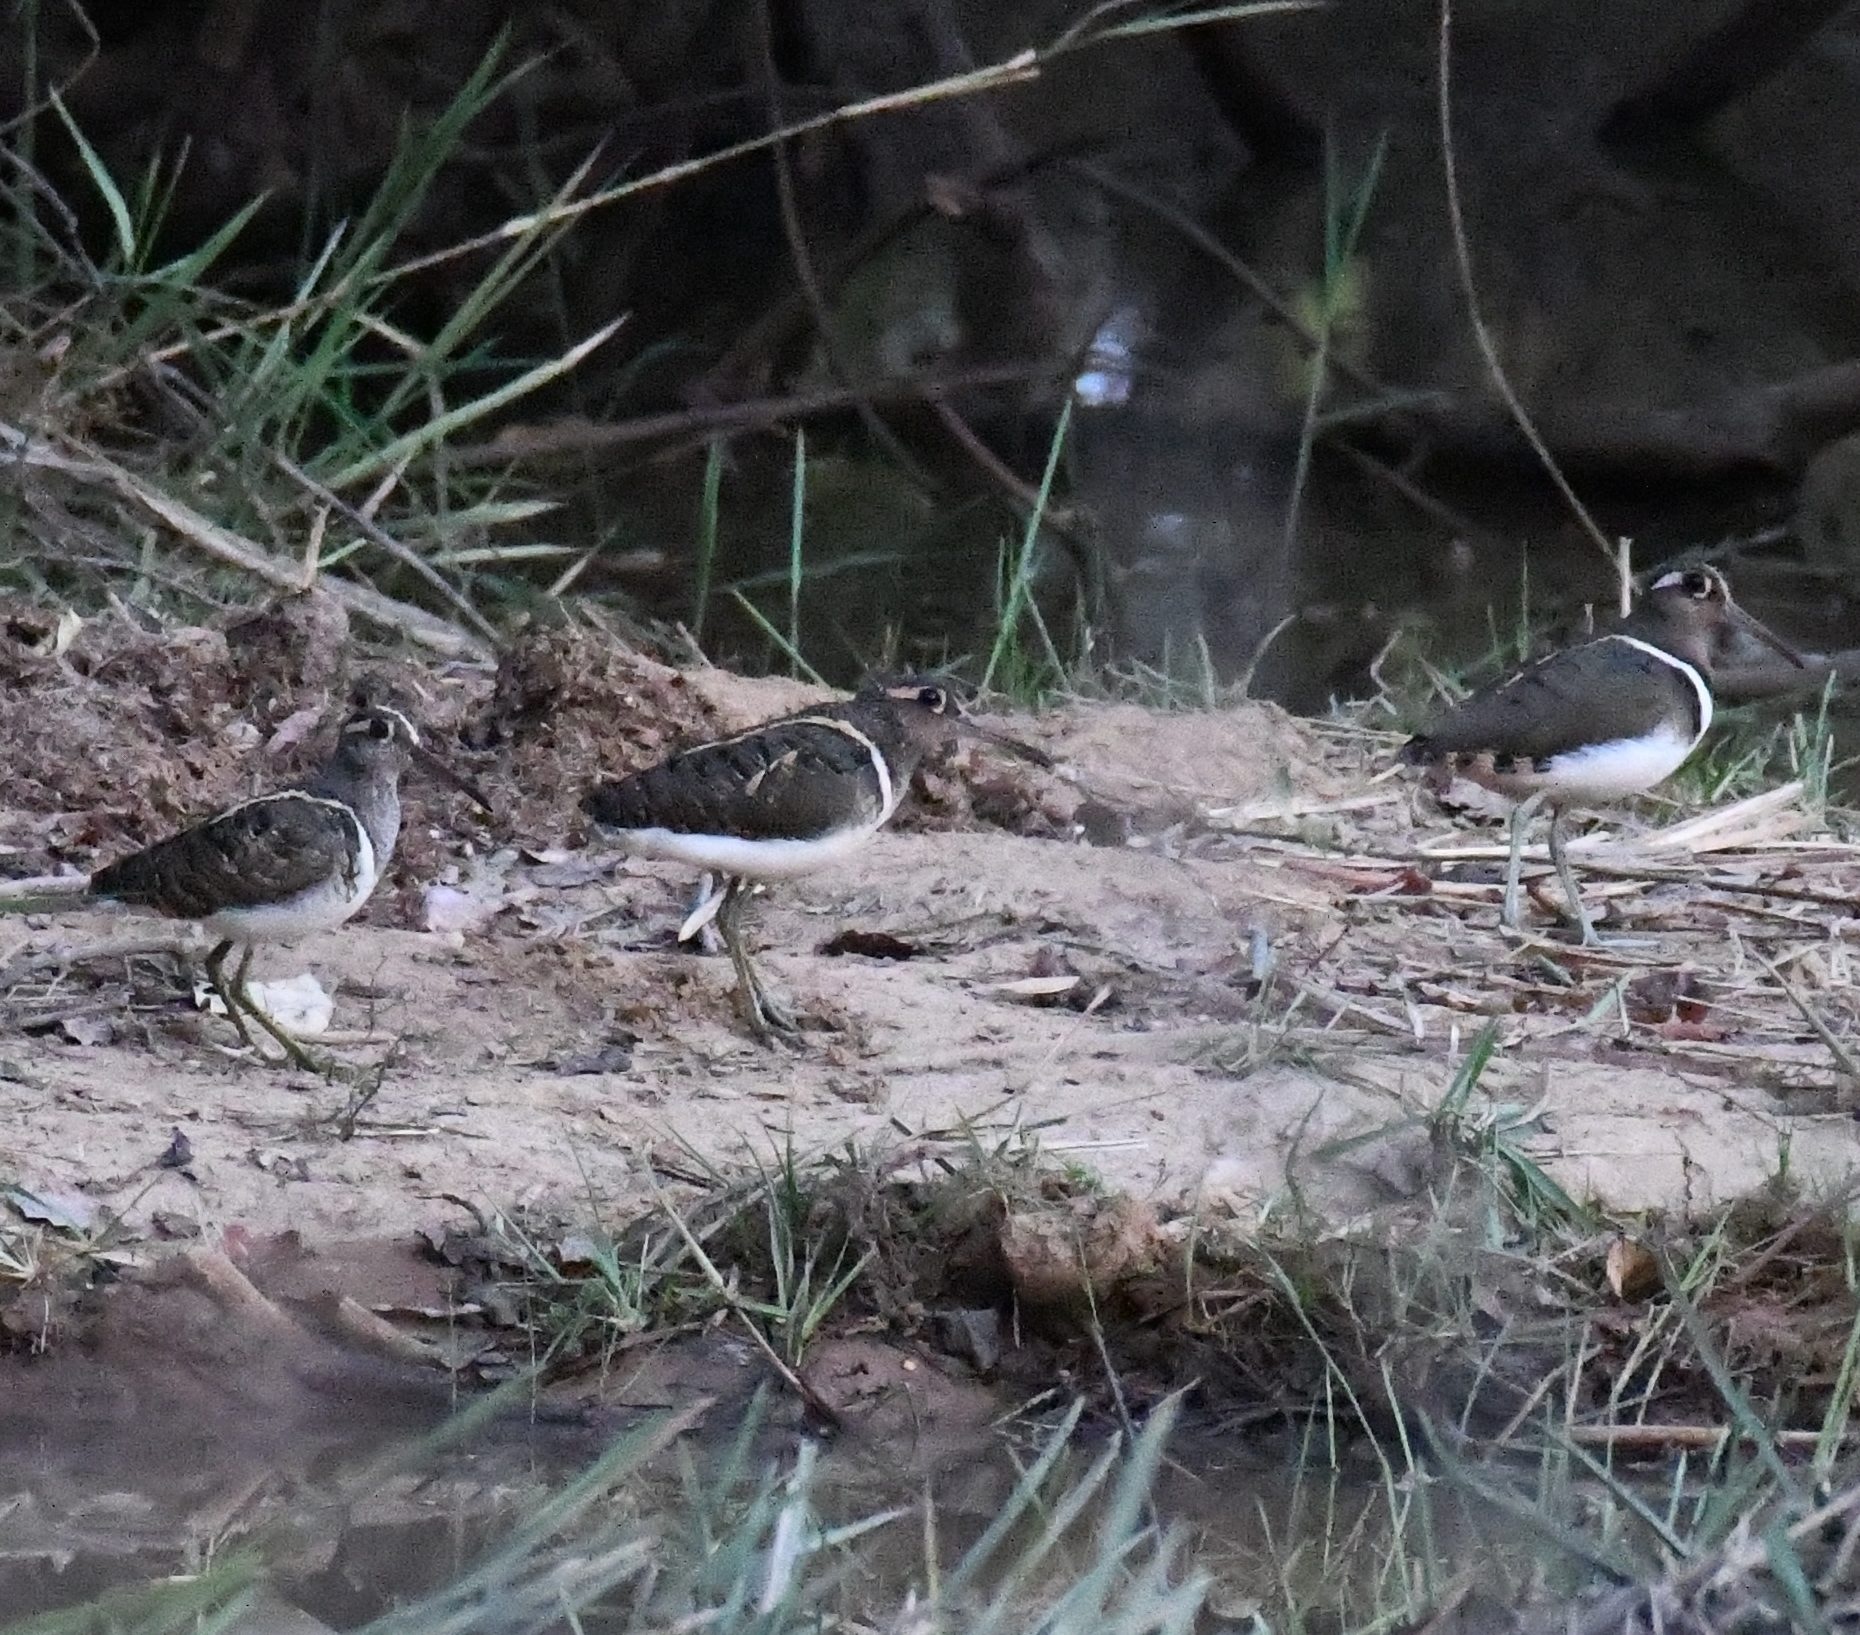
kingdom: Animalia
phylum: Chordata
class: Aves
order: Charadriiformes
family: Rostratulidae
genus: Rostratula
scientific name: Rostratula benghalensis
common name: Greater painted-snipe
